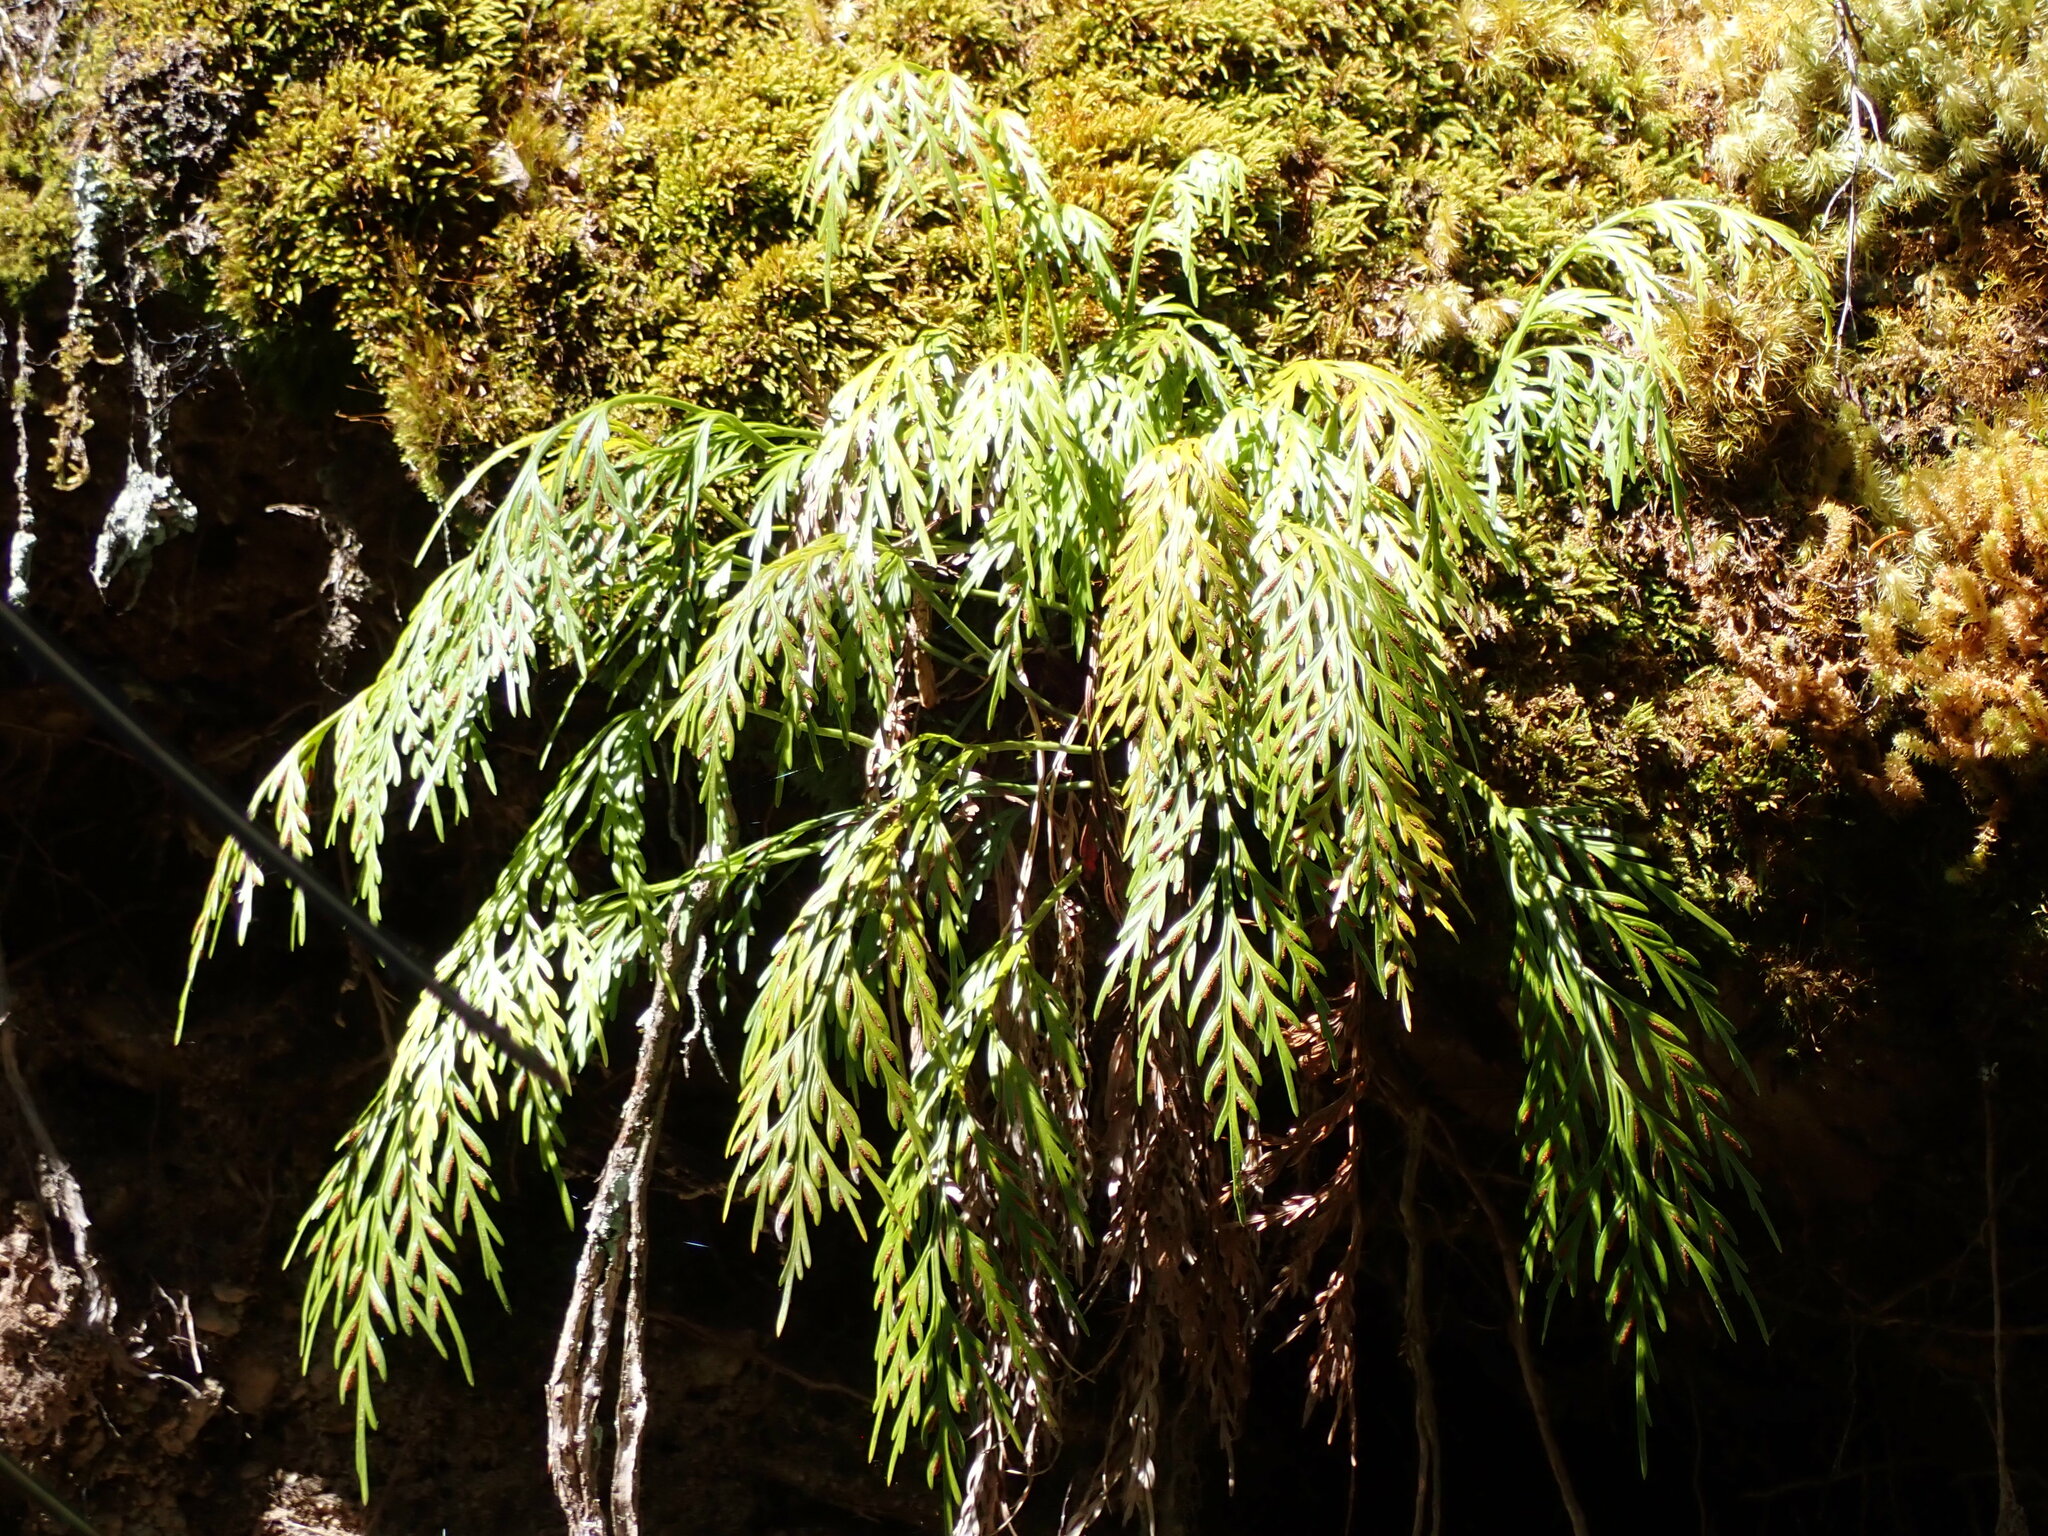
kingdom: Plantae
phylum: Tracheophyta
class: Polypodiopsida
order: Polypodiales
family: Aspleniaceae
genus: Asplenium
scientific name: Asplenium flaccidum
